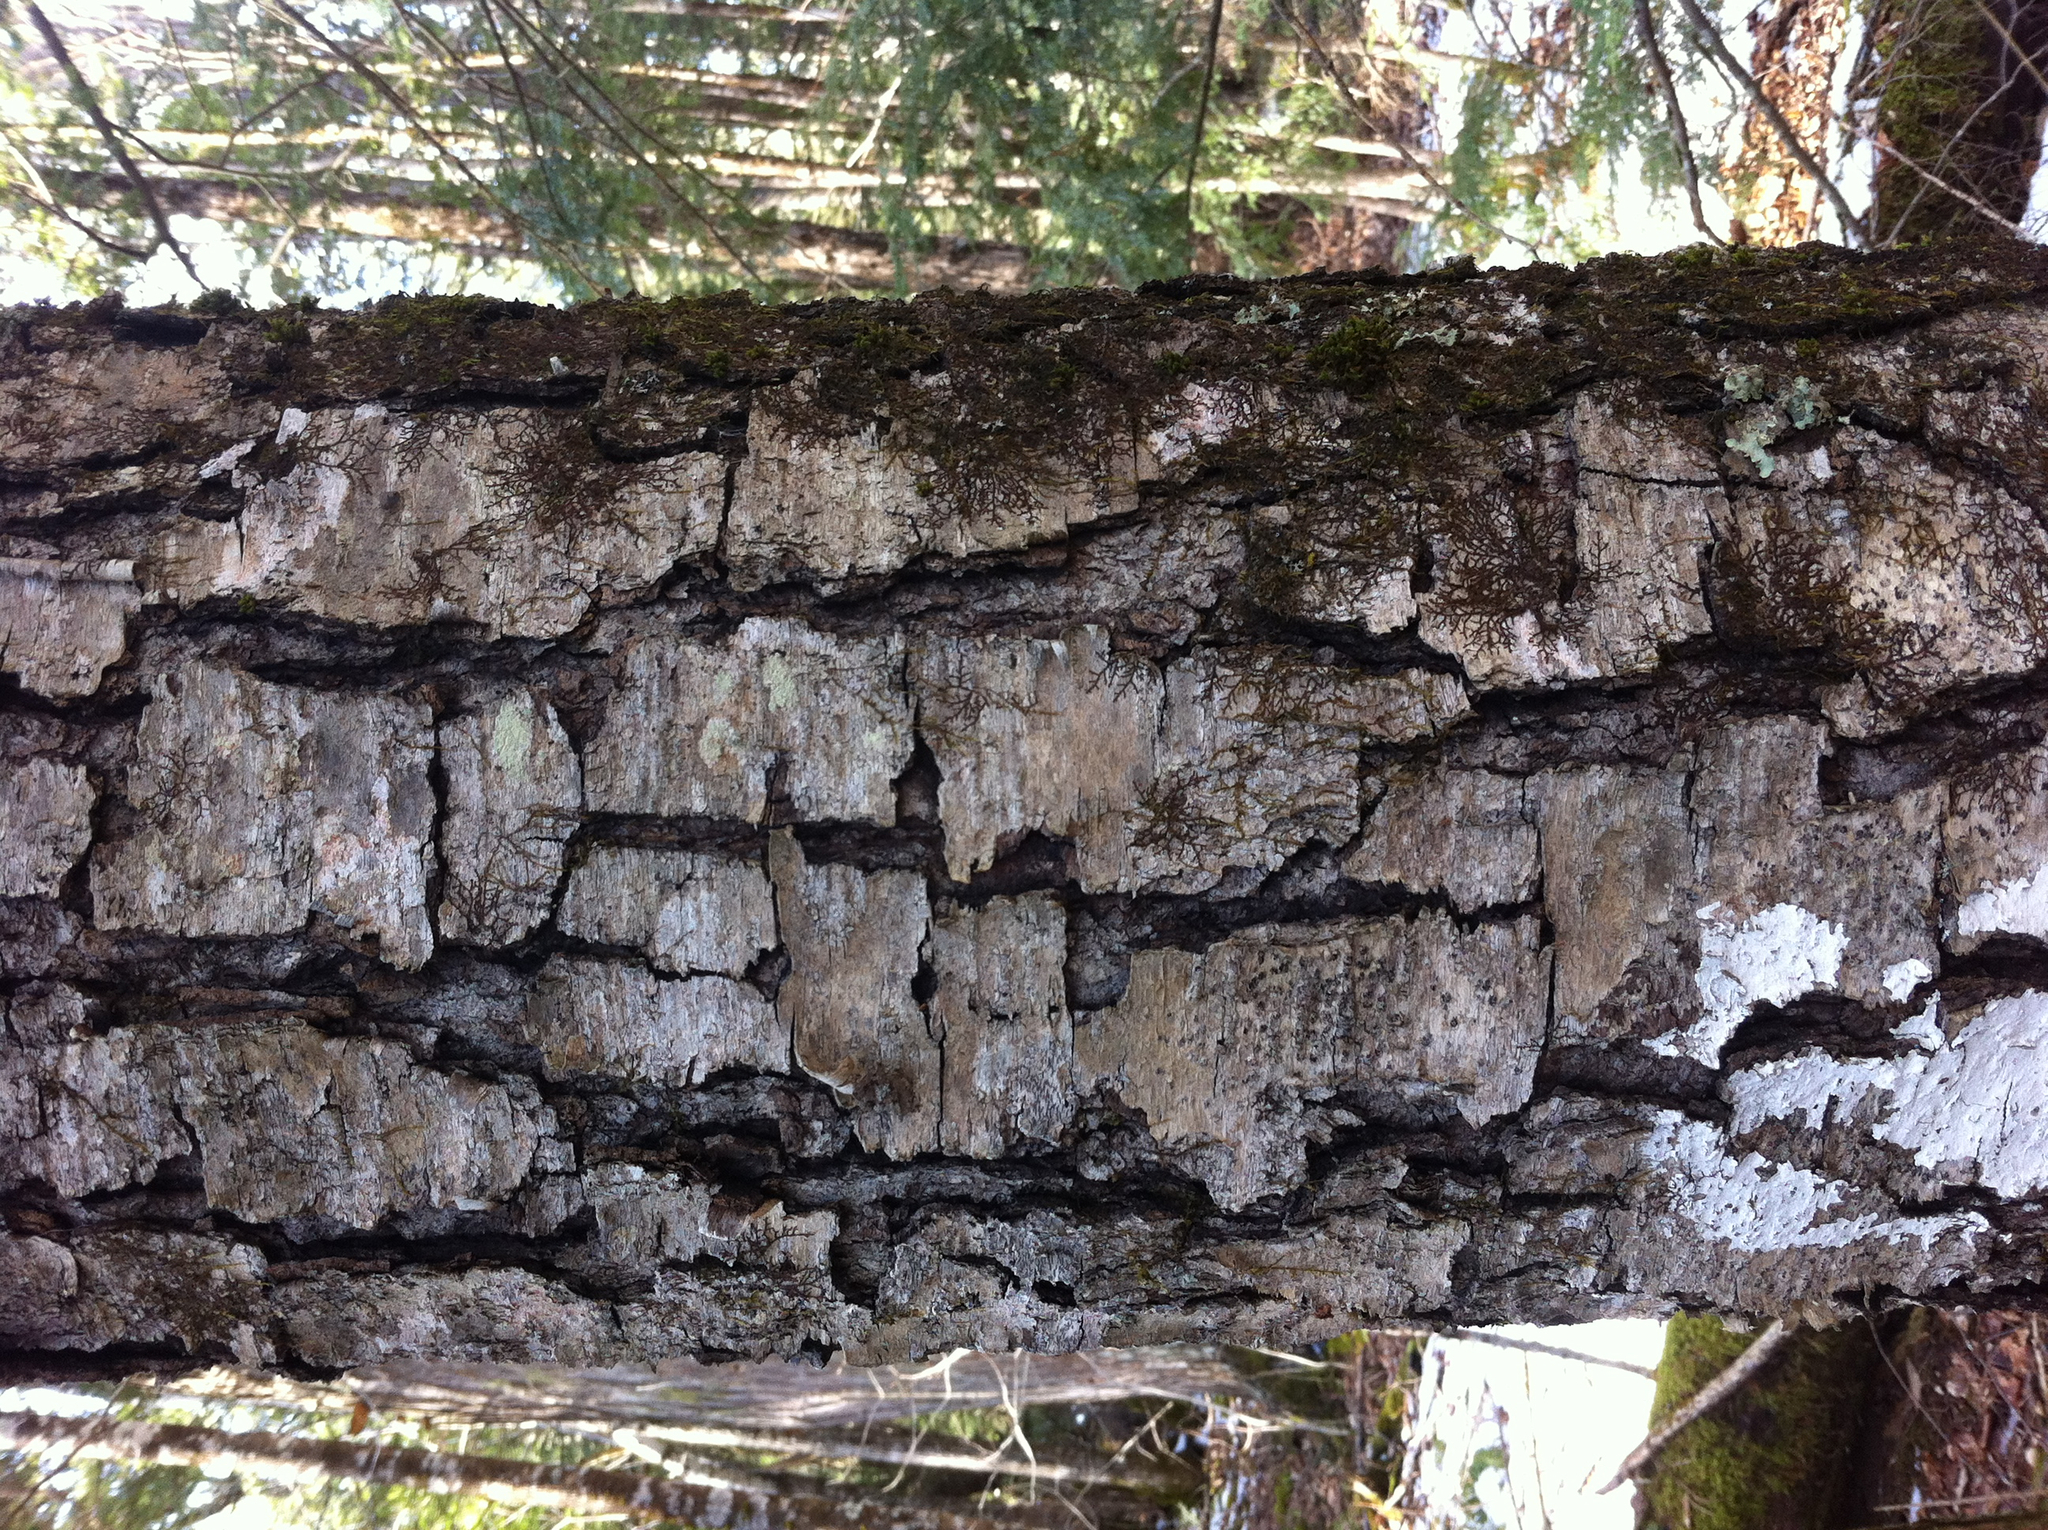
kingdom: Plantae
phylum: Tracheophyta
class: Magnoliopsida
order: Fagales
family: Betulaceae
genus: Betula
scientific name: Betula lenta
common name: Black birch
